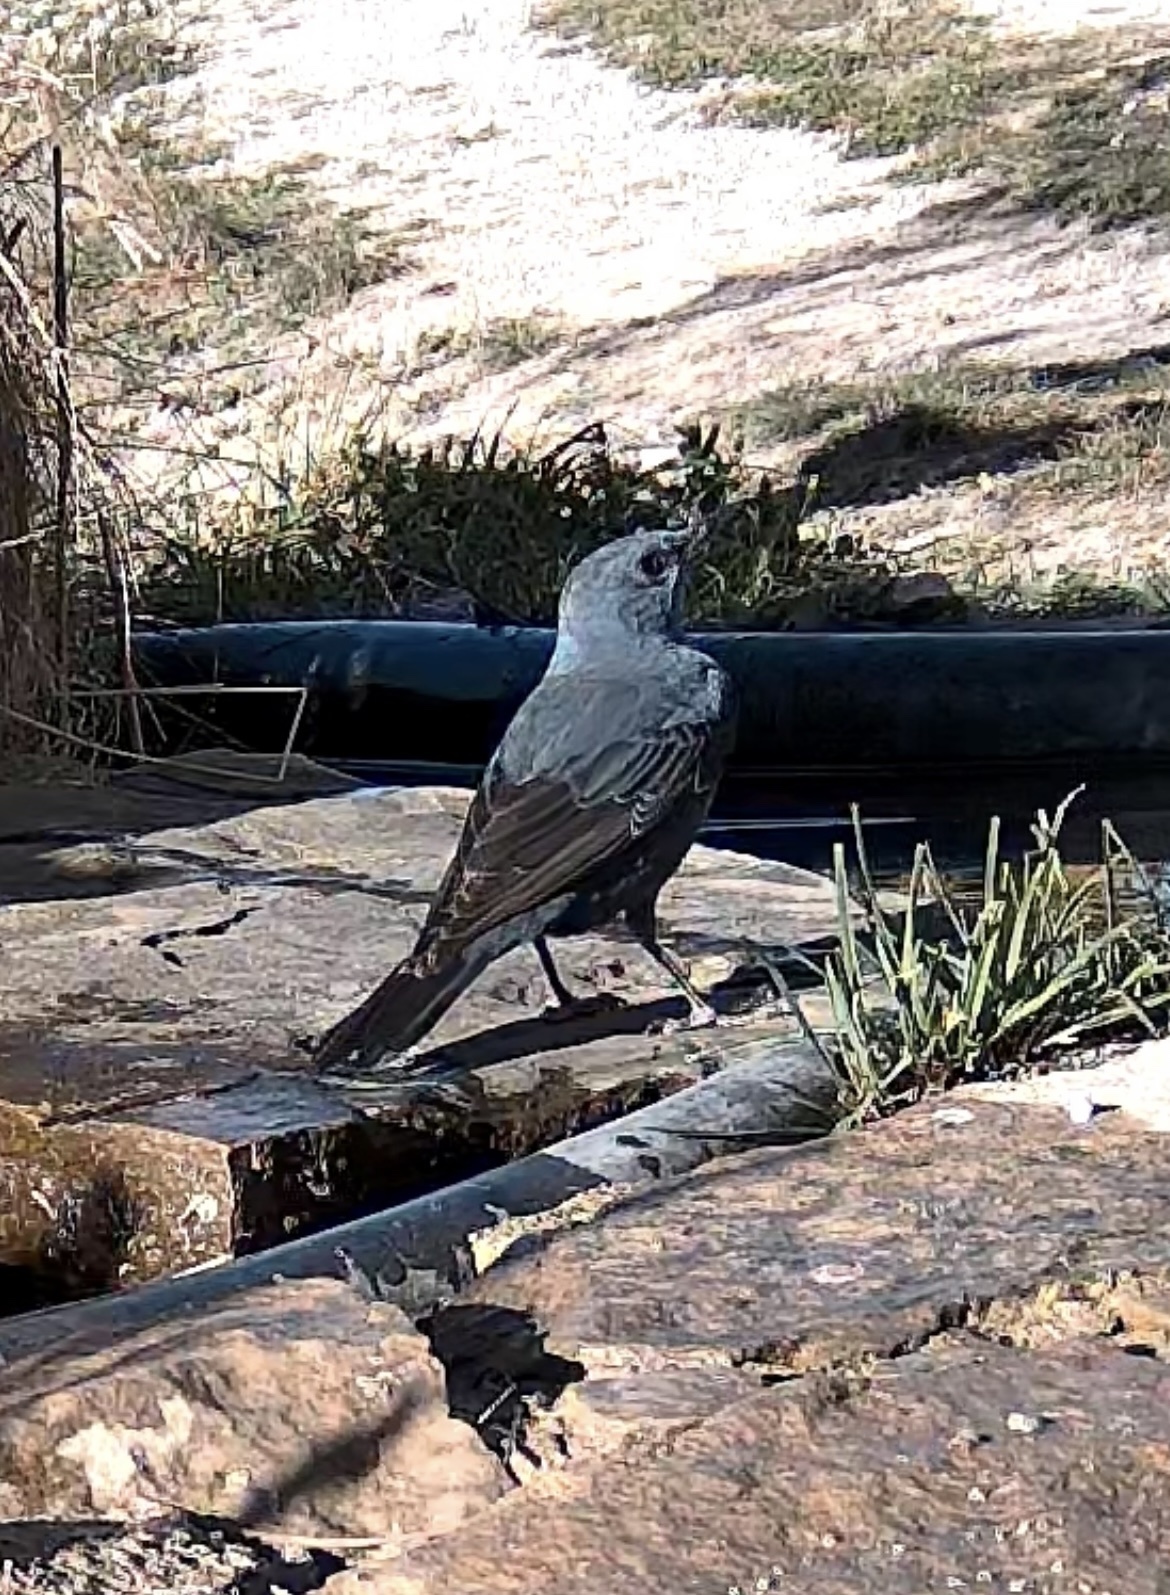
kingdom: Animalia
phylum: Chordata
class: Aves
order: Passeriformes
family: Muscicapidae
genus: Monticola
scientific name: Monticola solitarius
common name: Blue rock thrush
